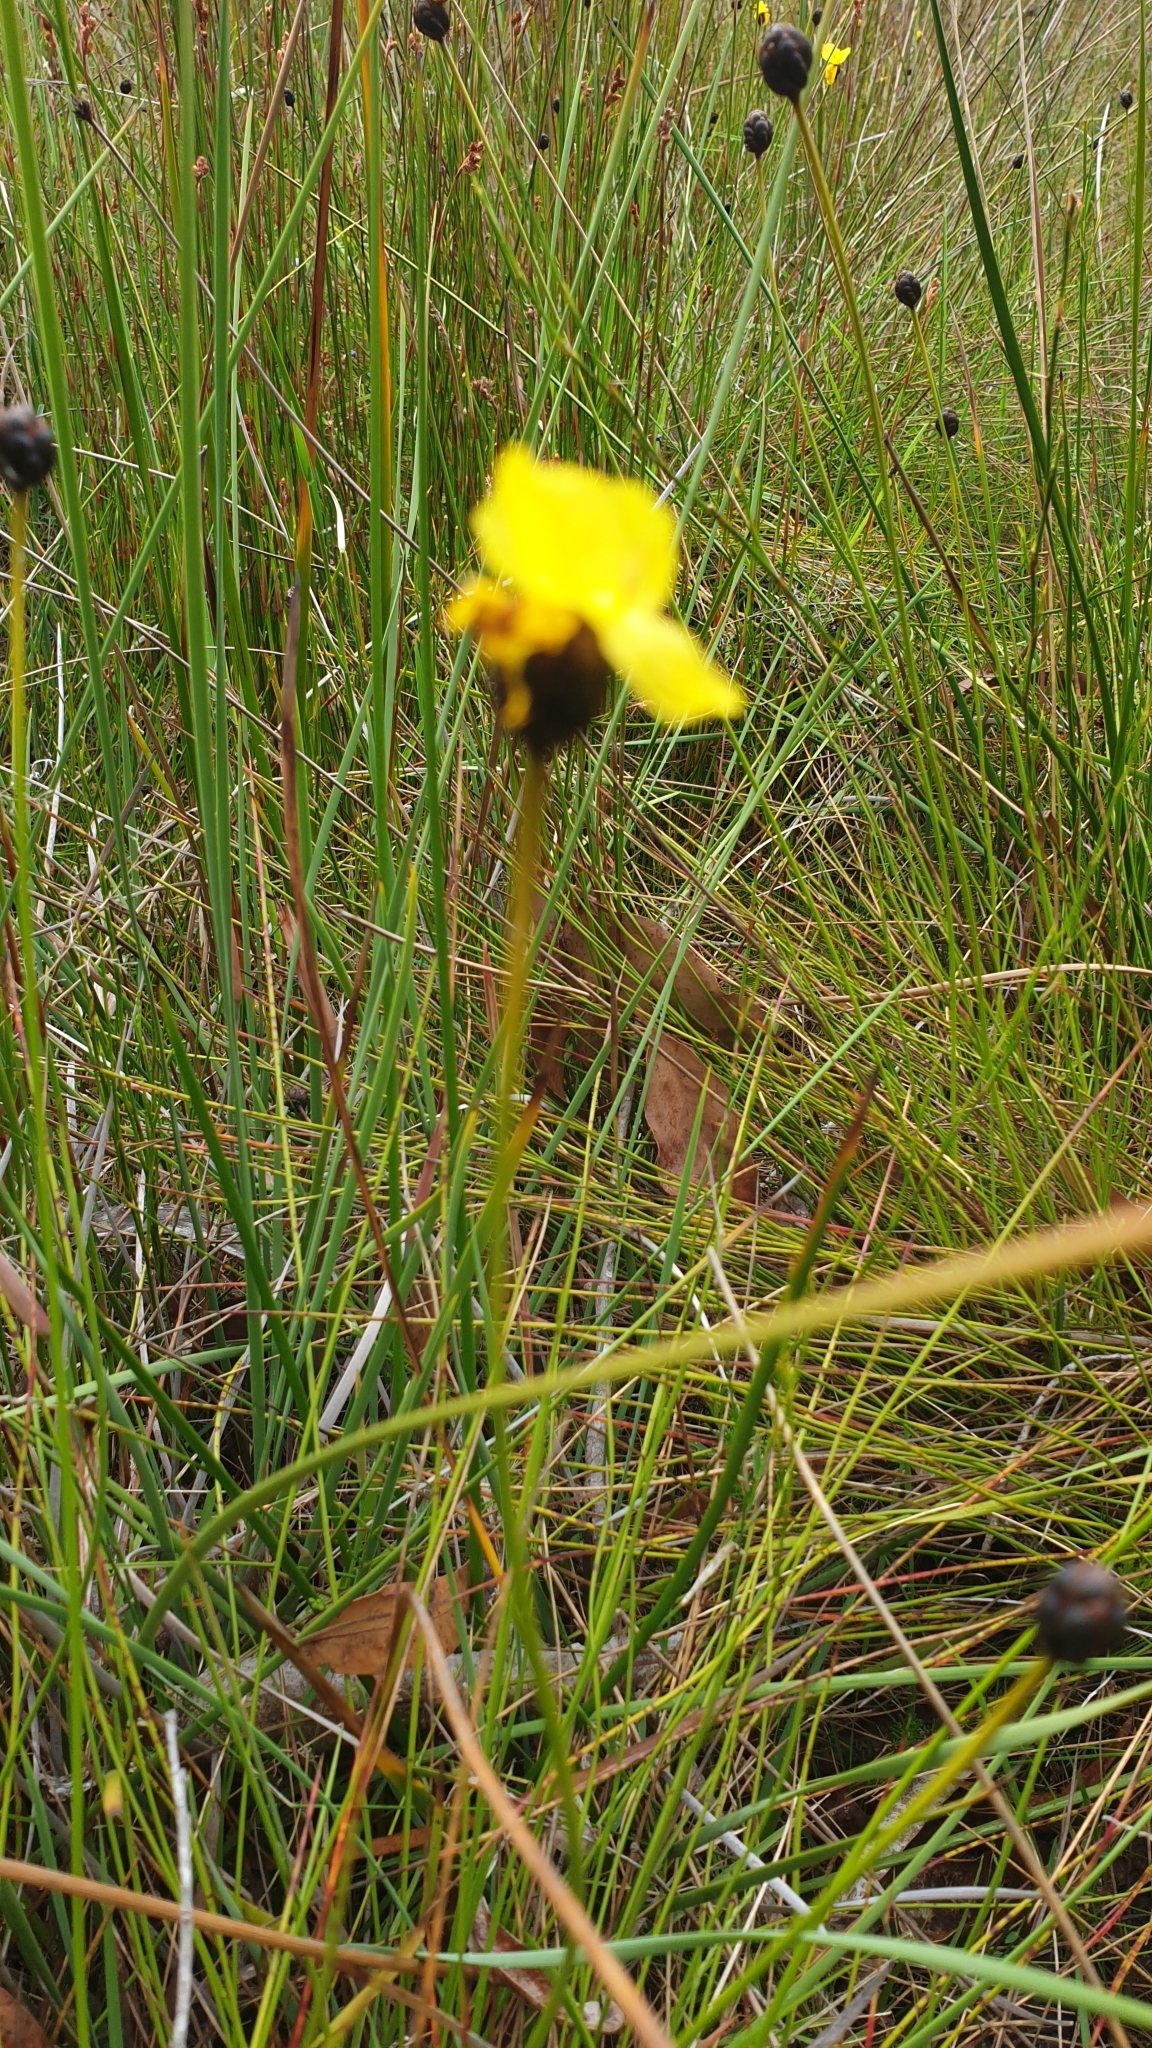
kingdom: Plantae
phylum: Tracheophyta
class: Liliopsida
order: Poales
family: Xyridaceae
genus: Xyris
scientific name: Xyris operculata
